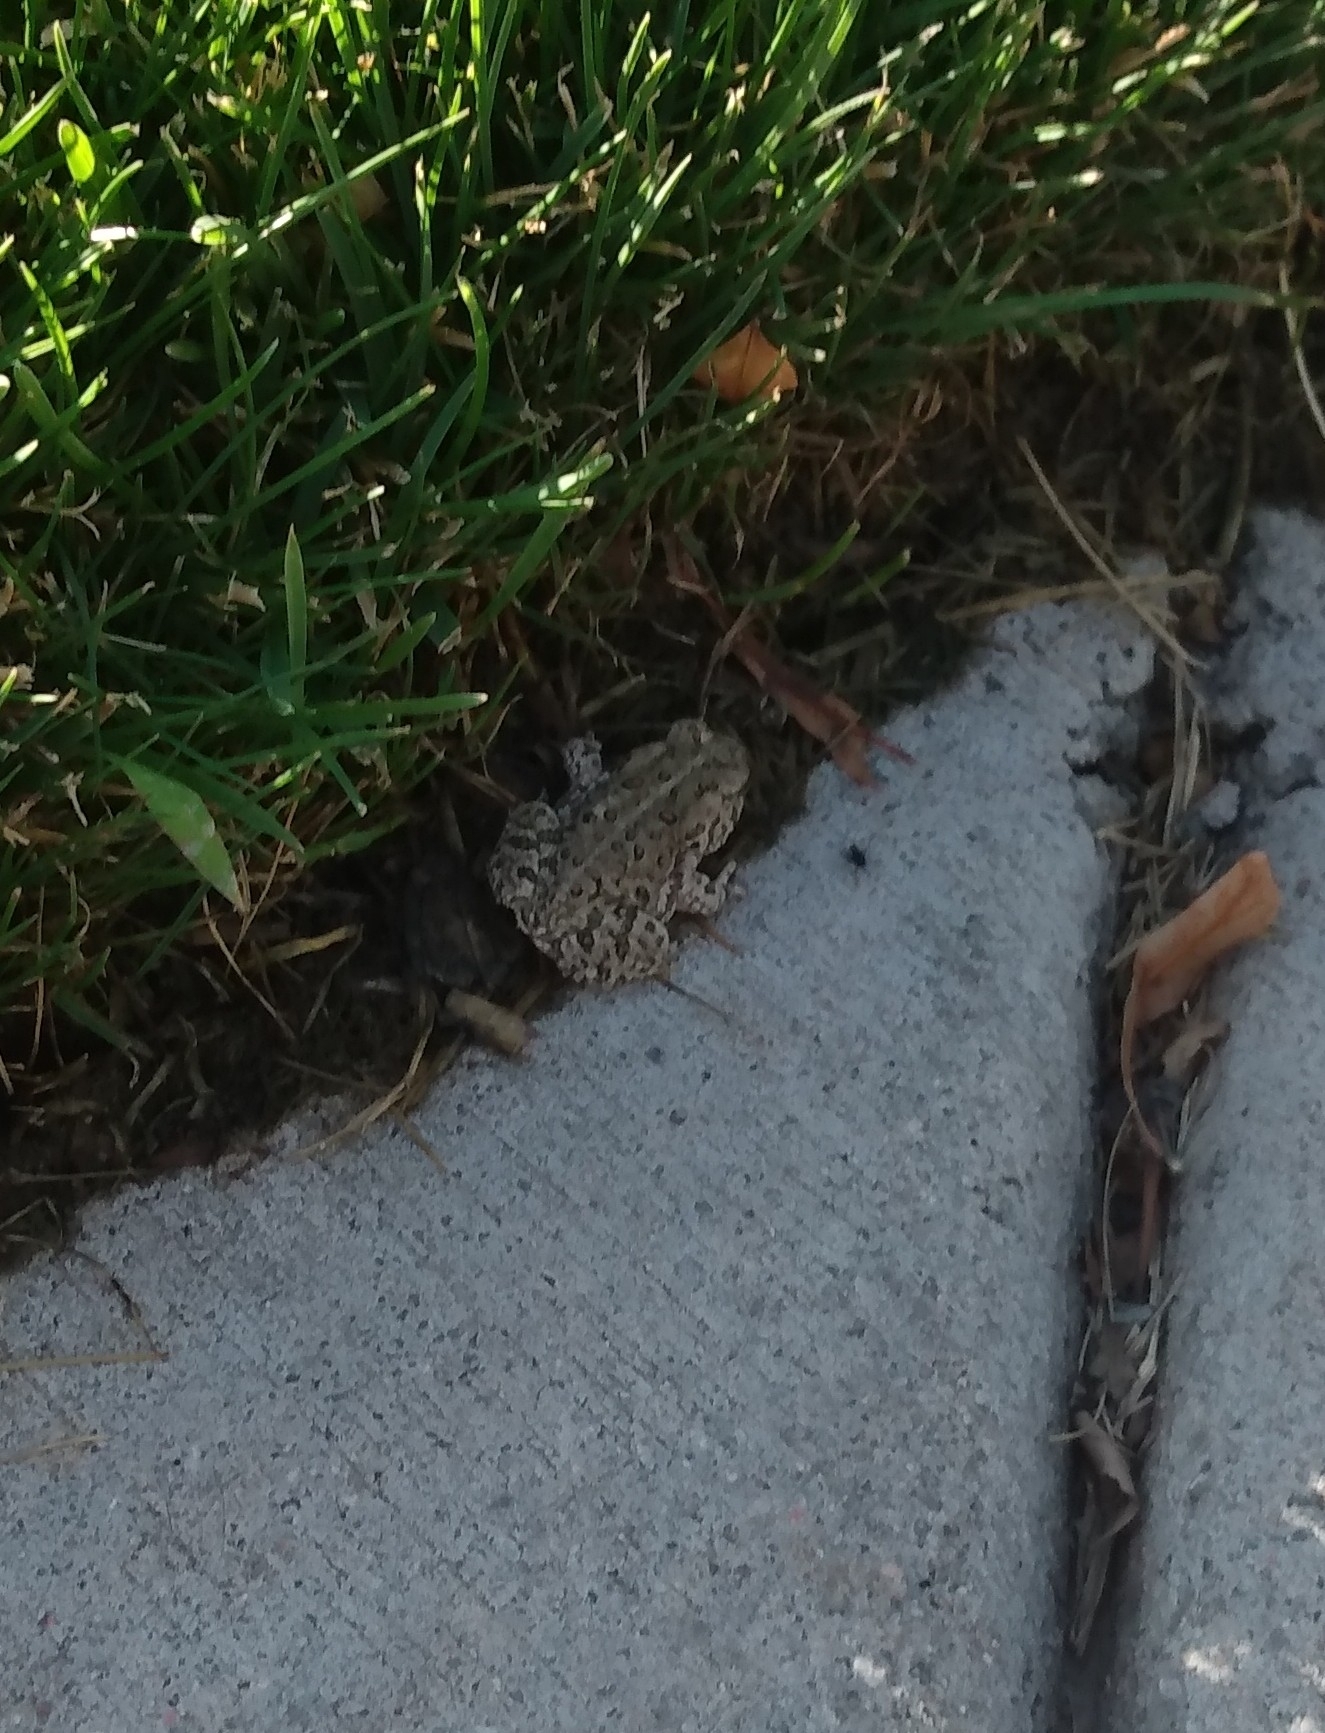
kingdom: Animalia
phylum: Chordata
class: Amphibia
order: Anura
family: Bufonidae
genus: Anaxyrus
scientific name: Anaxyrus woodhousii
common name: Woodhouse's toad
